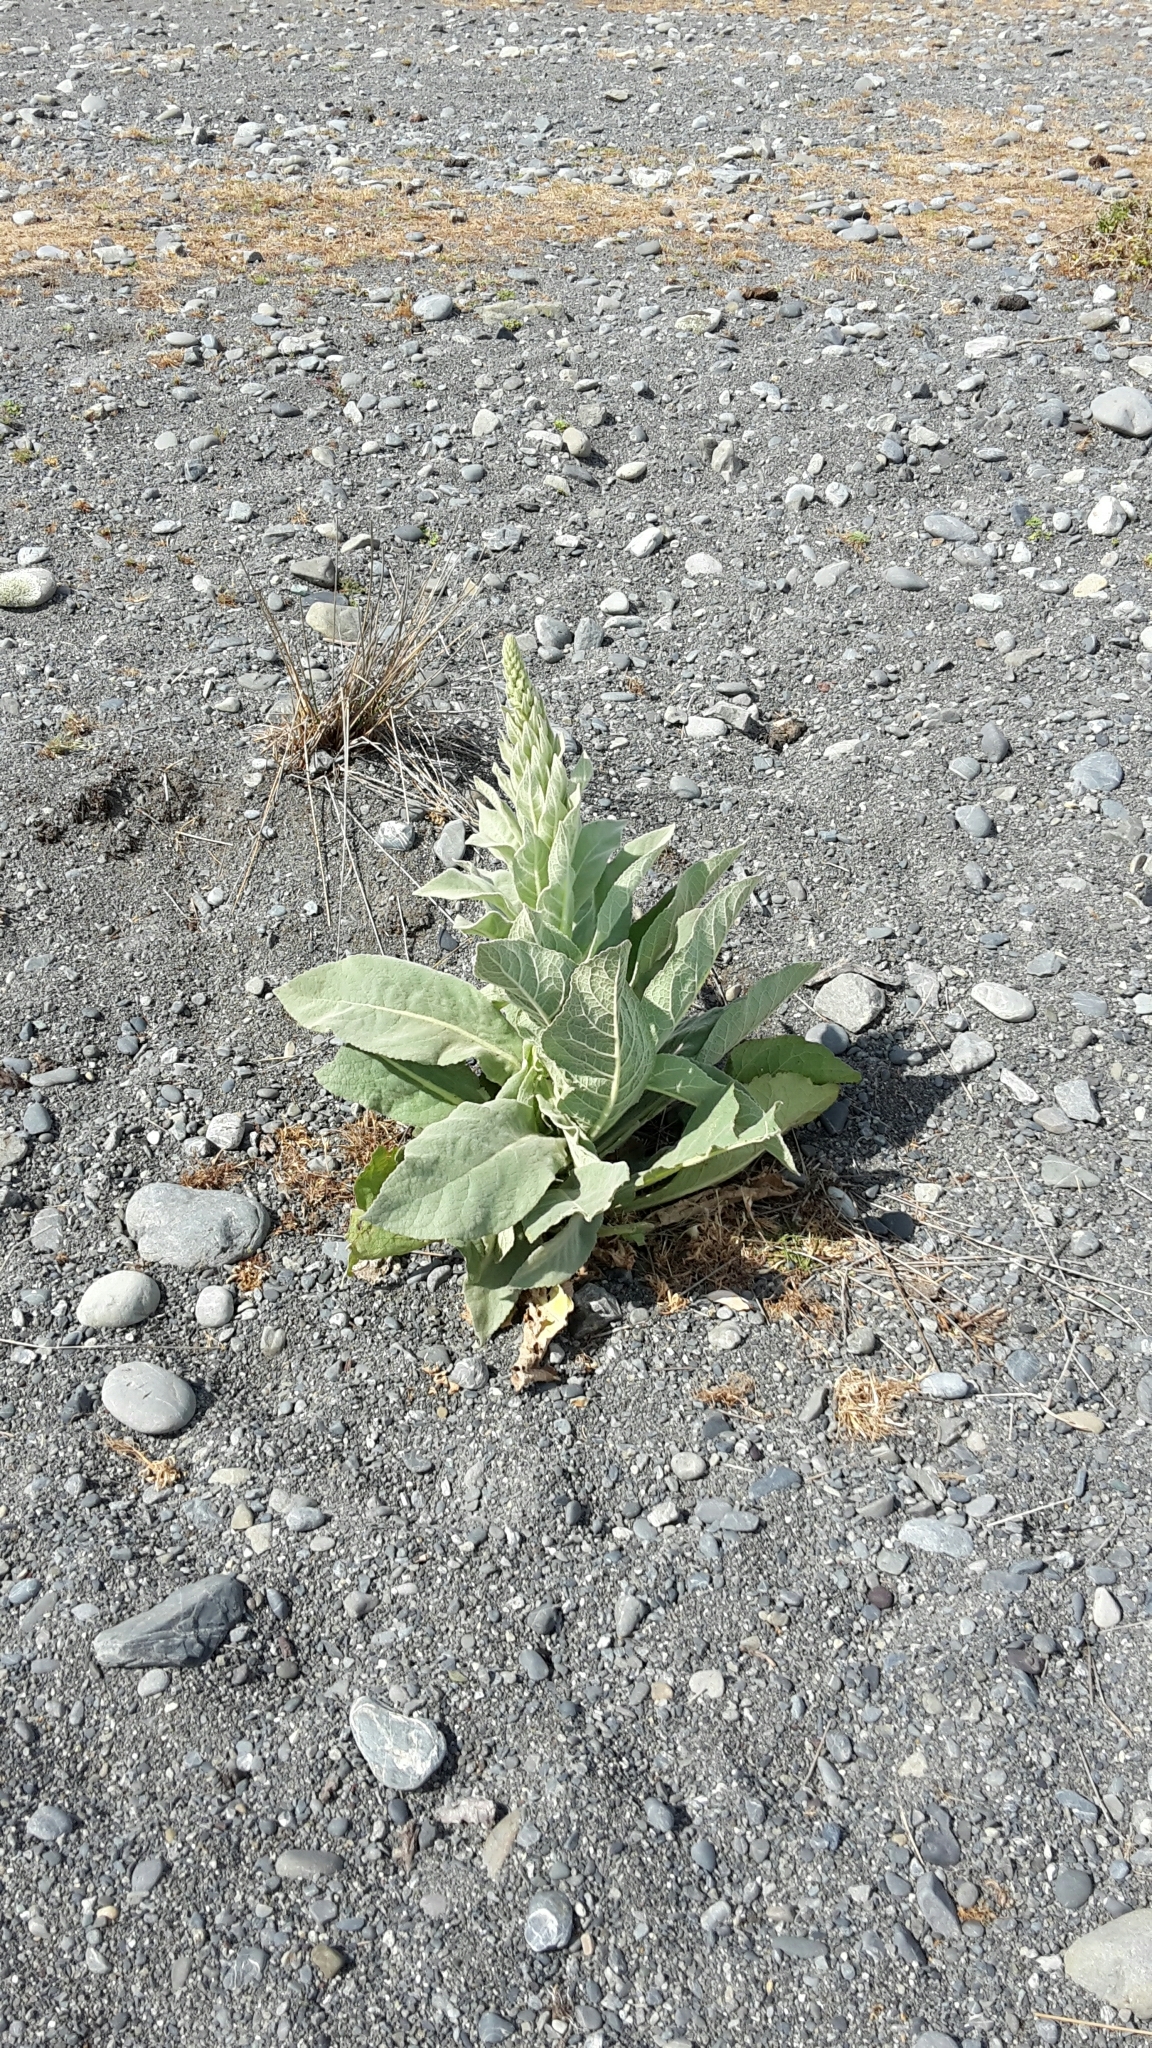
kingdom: Plantae
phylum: Tracheophyta
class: Magnoliopsida
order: Lamiales
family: Scrophulariaceae
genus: Verbascum
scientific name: Verbascum thapsus
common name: Common mullein
